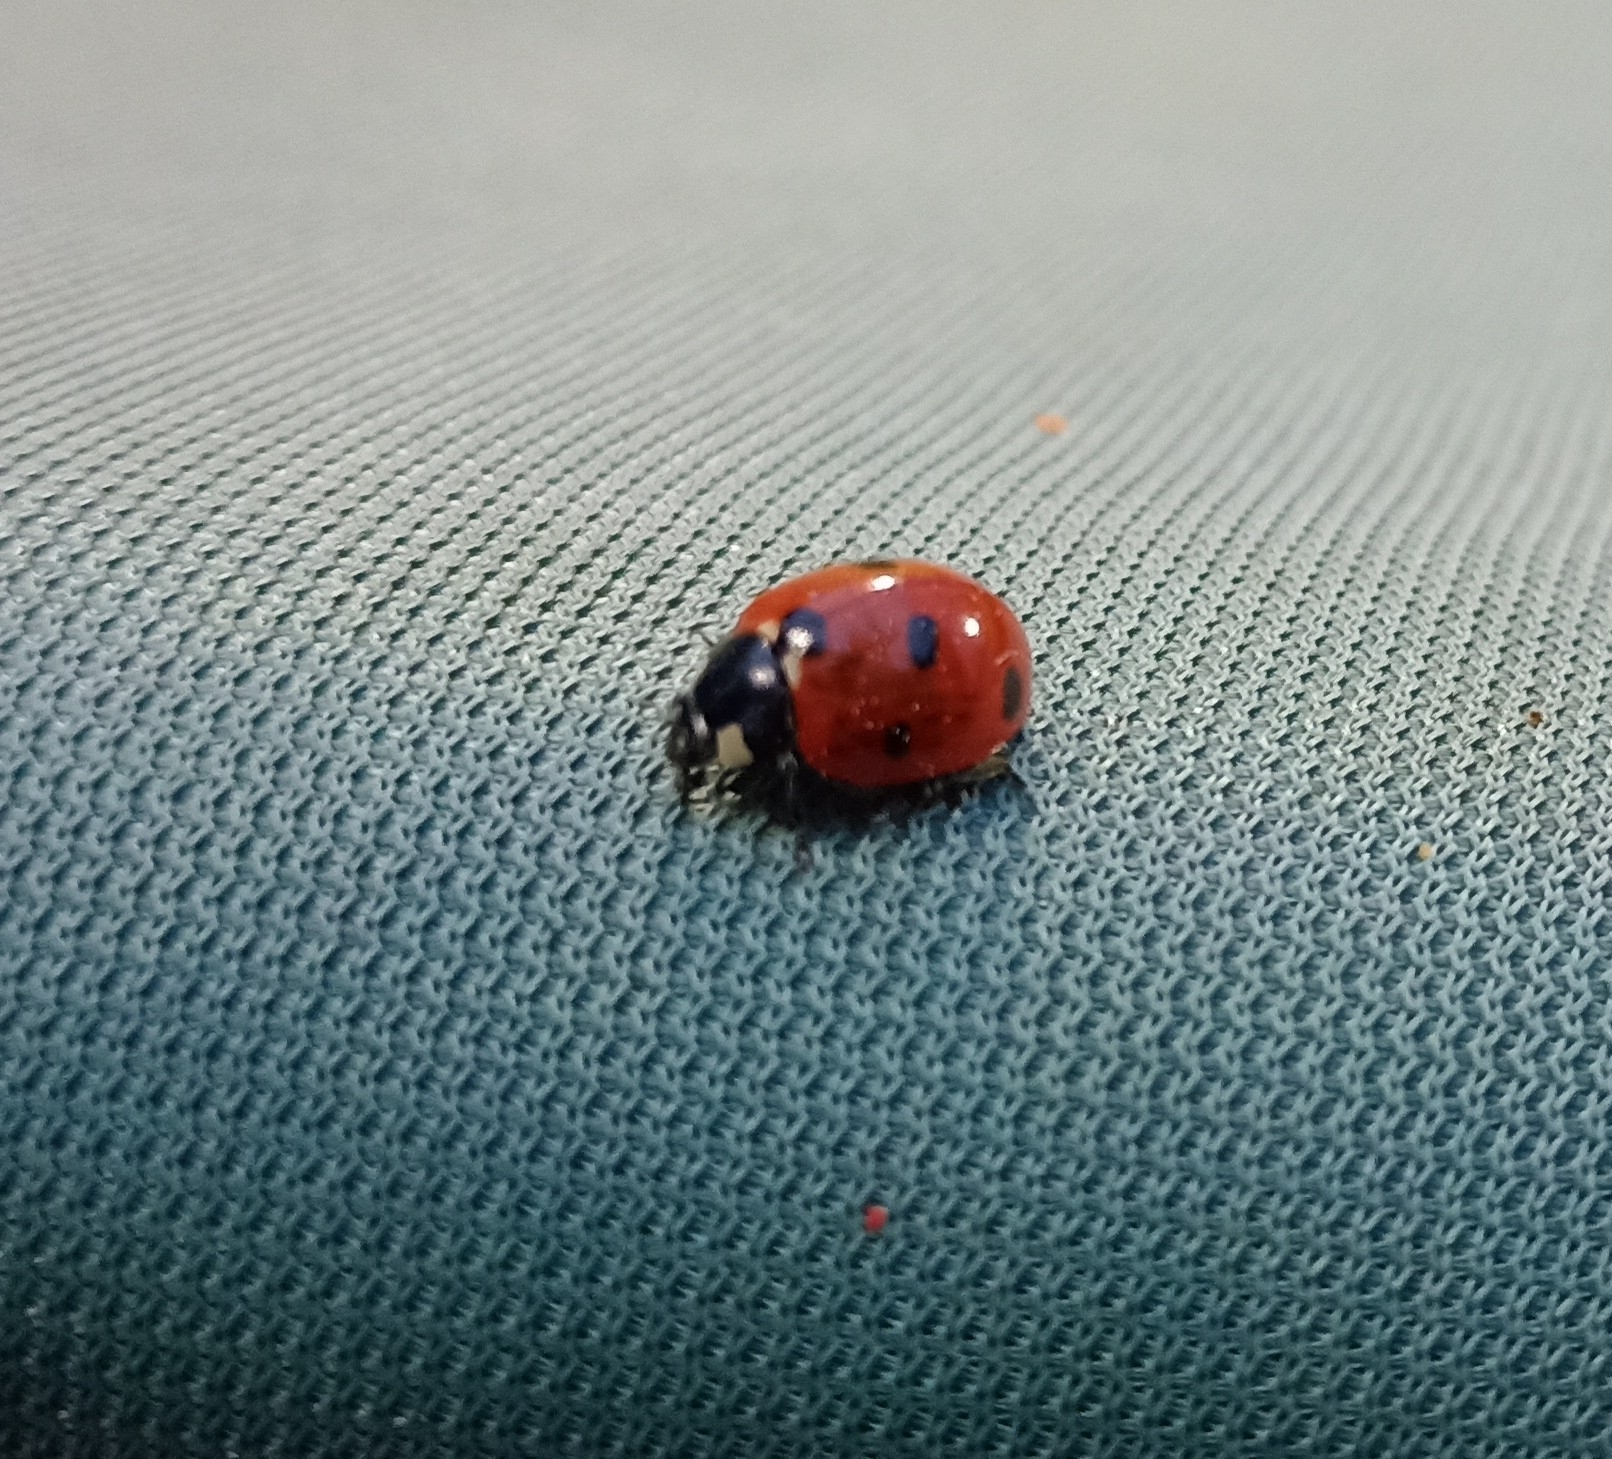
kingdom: Animalia
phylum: Arthropoda
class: Insecta
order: Coleoptera
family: Coccinellidae
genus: Coccinella
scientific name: Coccinella septempunctata
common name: Sevenspotted lady beetle
